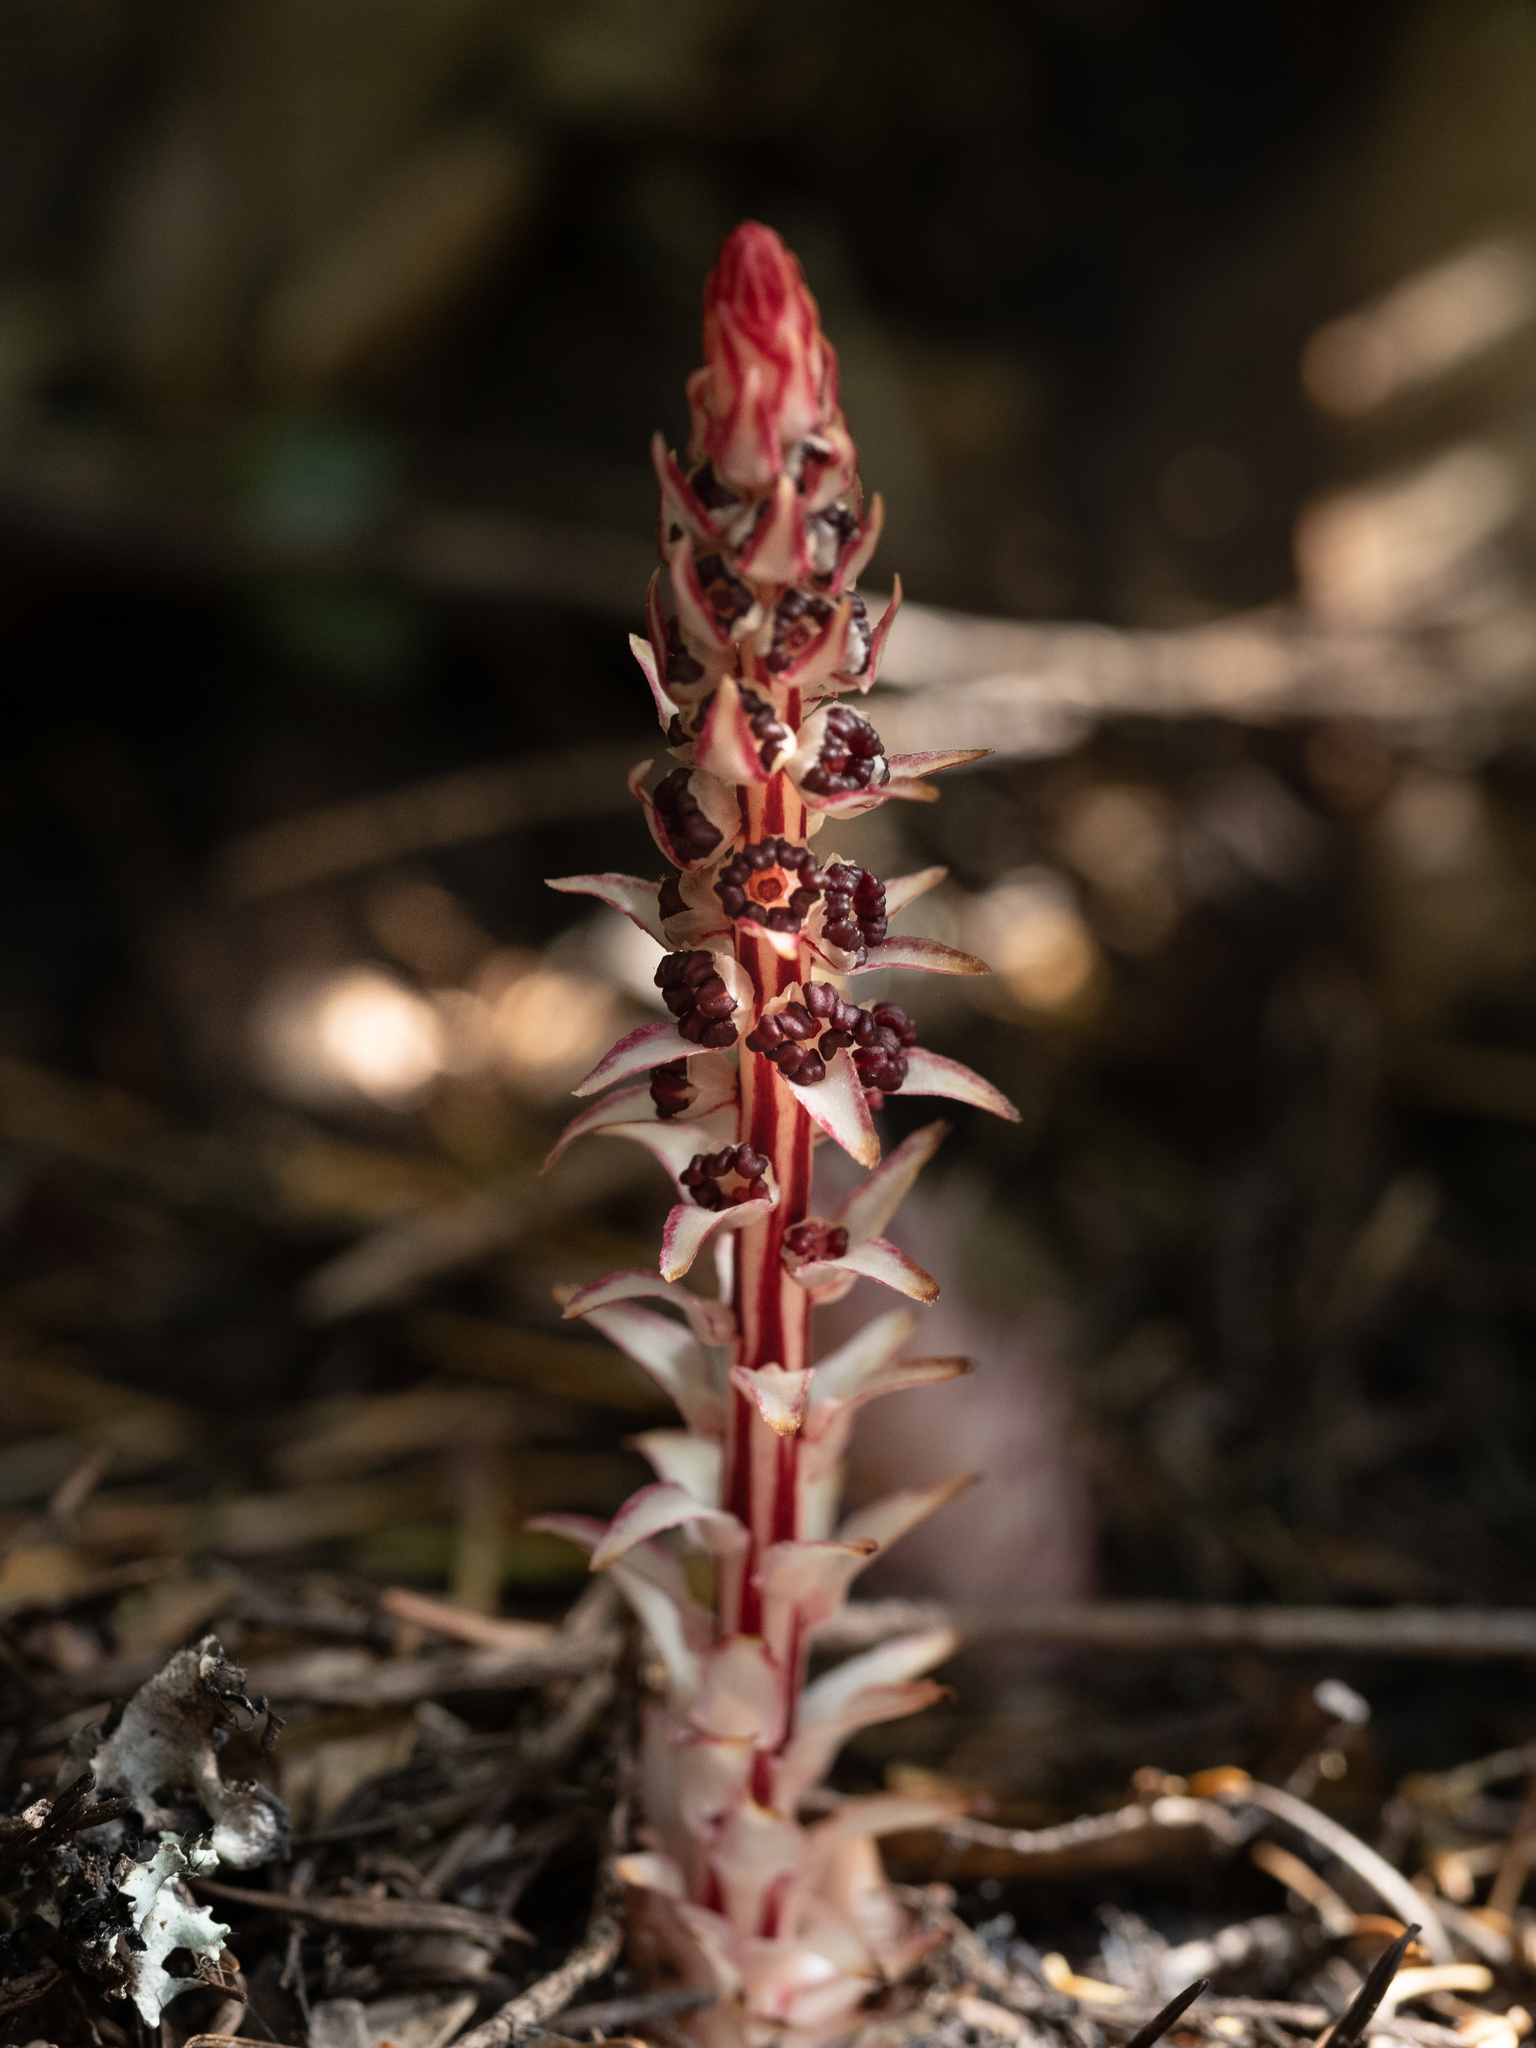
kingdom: Plantae
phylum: Tracheophyta
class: Magnoliopsida
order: Ericales
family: Ericaceae
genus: Allotropa
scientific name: Allotropa virgata
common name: Candy-striped allotropa
